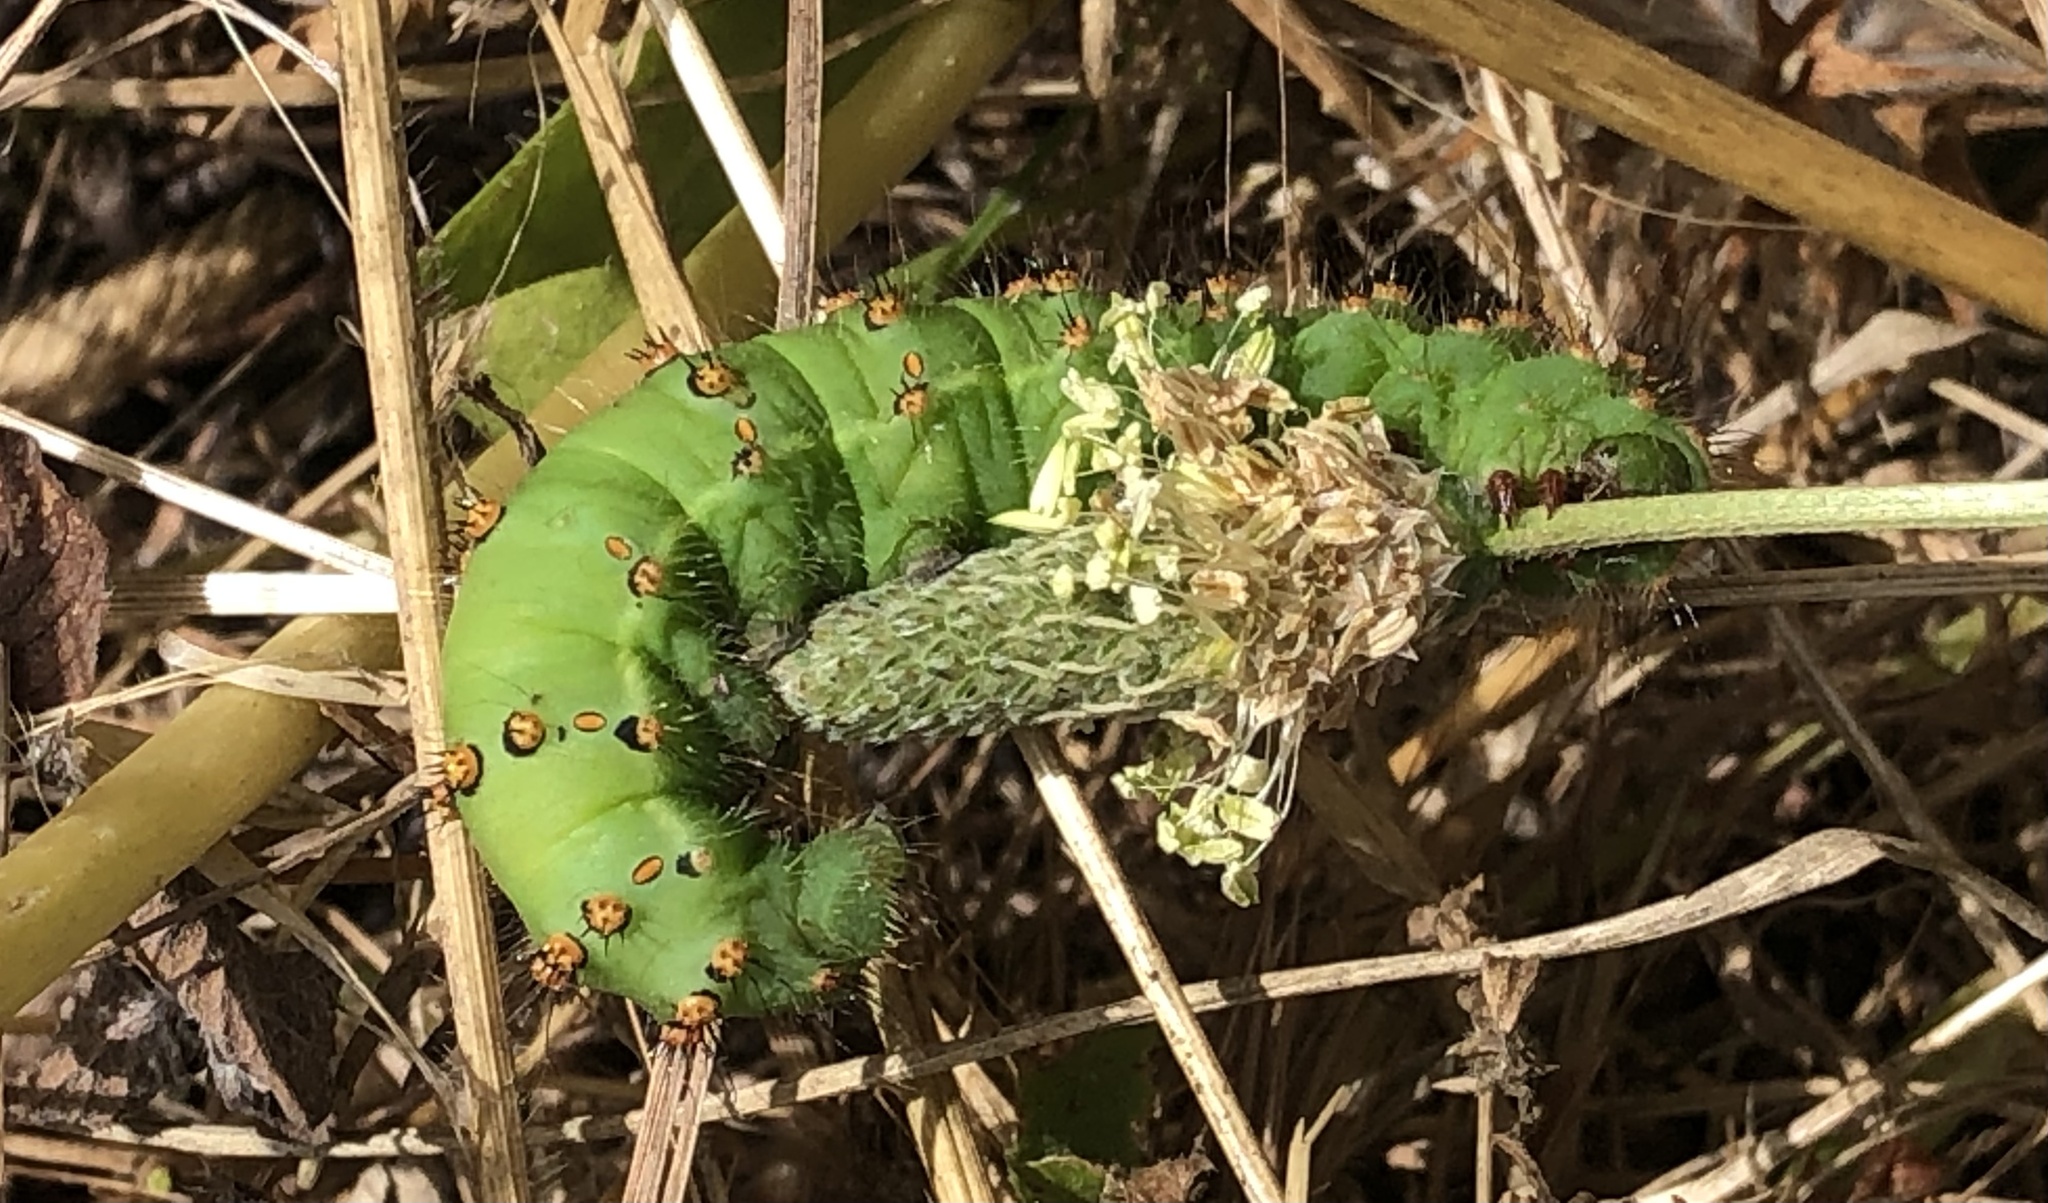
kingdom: Animalia
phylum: Arthropoda
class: Insecta
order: Lepidoptera
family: Saturniidae
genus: Saturnia
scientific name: Saturnia pavoniella
